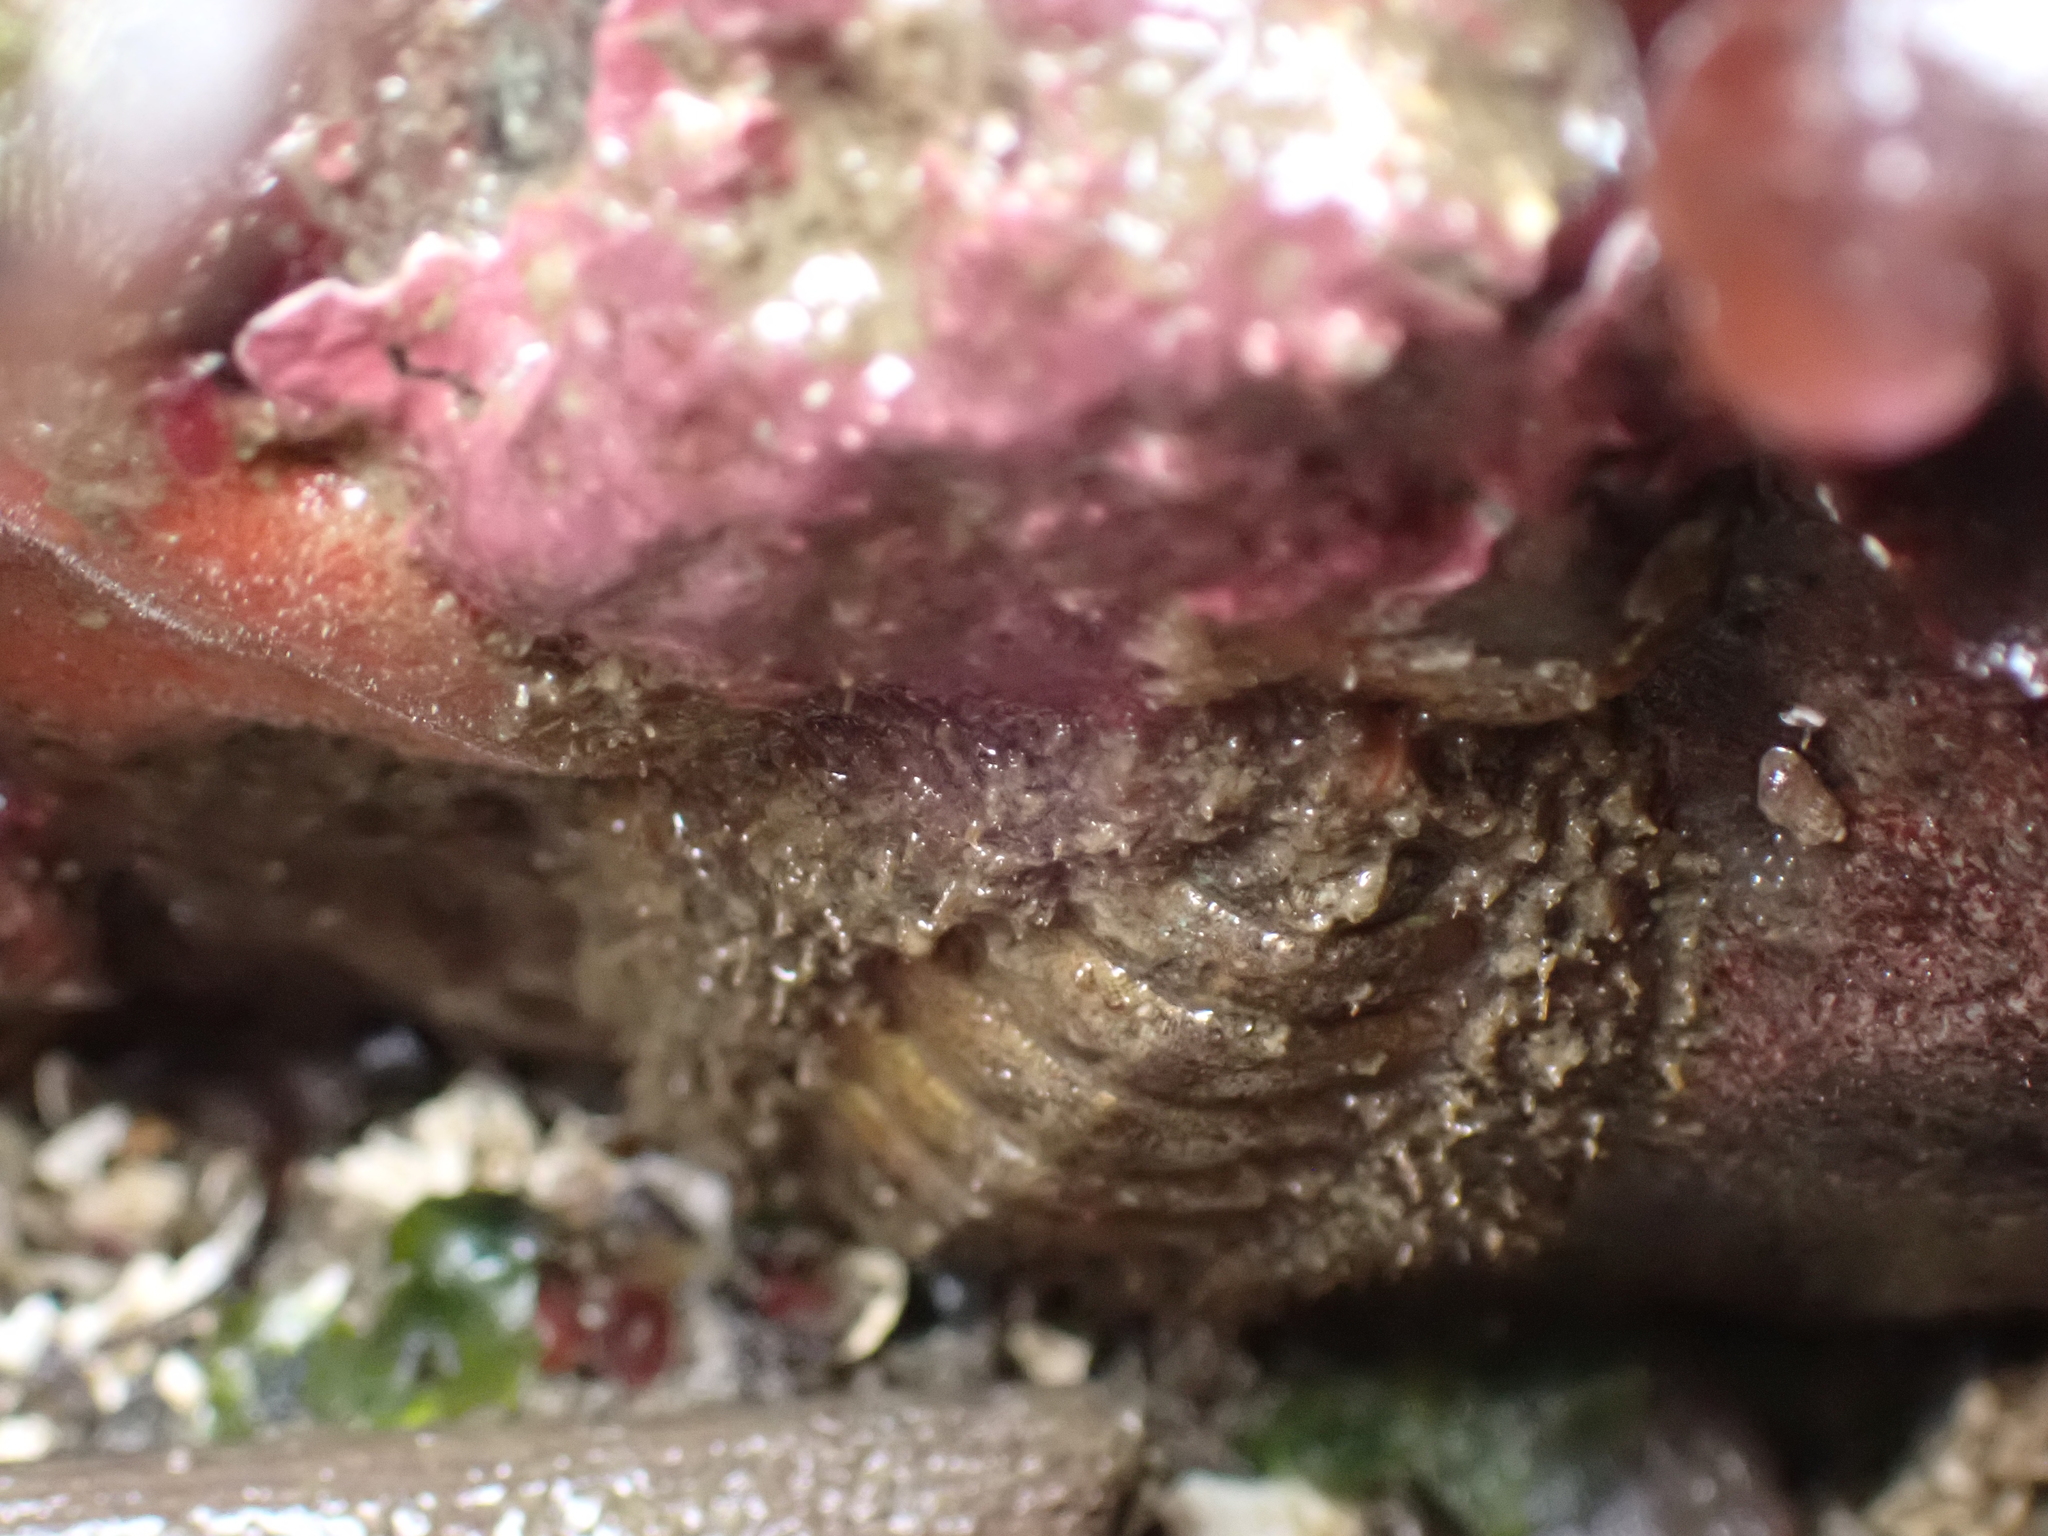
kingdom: Animalia
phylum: Mollusca
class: Polyplacophora
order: Chitonida
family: Mopaliidae
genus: Mopalia
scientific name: Mopalia muscosa
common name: Mossy chiton
